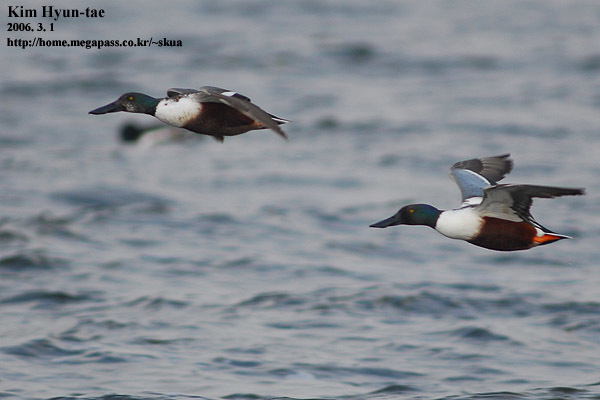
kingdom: Animalia
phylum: Chordata
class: Aves
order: Anseriformes
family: Anatidae
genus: Spatula
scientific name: Spatula clypeata
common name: Northern shoveler
